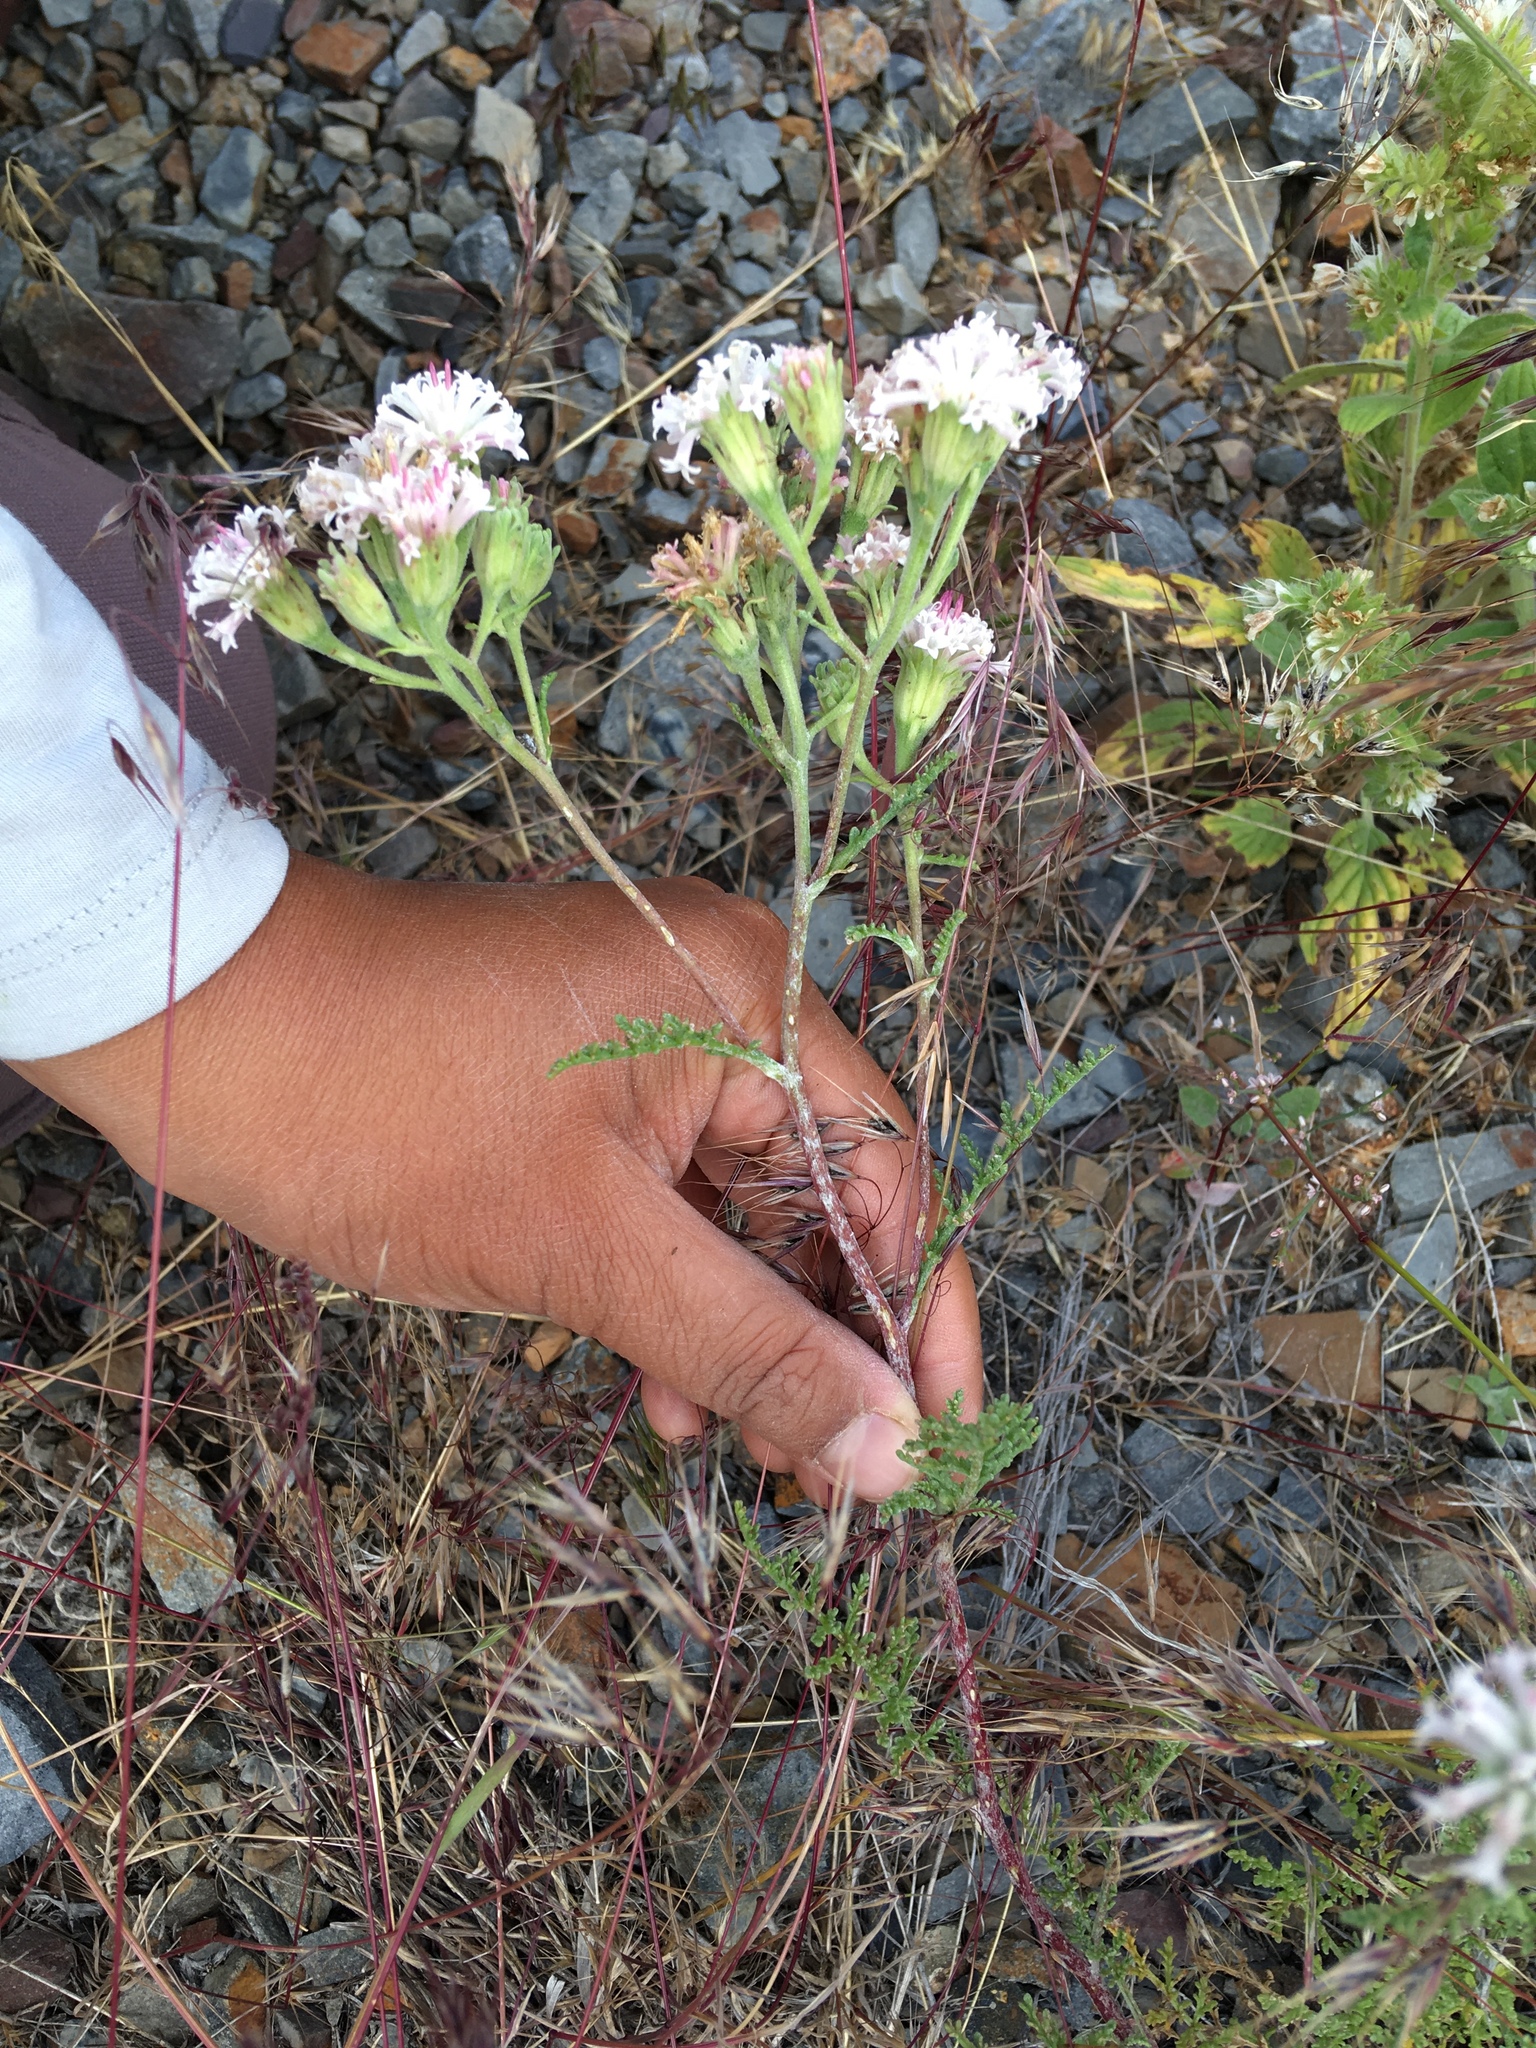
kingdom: Plantae
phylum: Tracheophyta
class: Magnoliopsida
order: Asterales
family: Asteraceae
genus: Chaenactis
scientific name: Chaenactis douglasii
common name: Hoary pincushion
